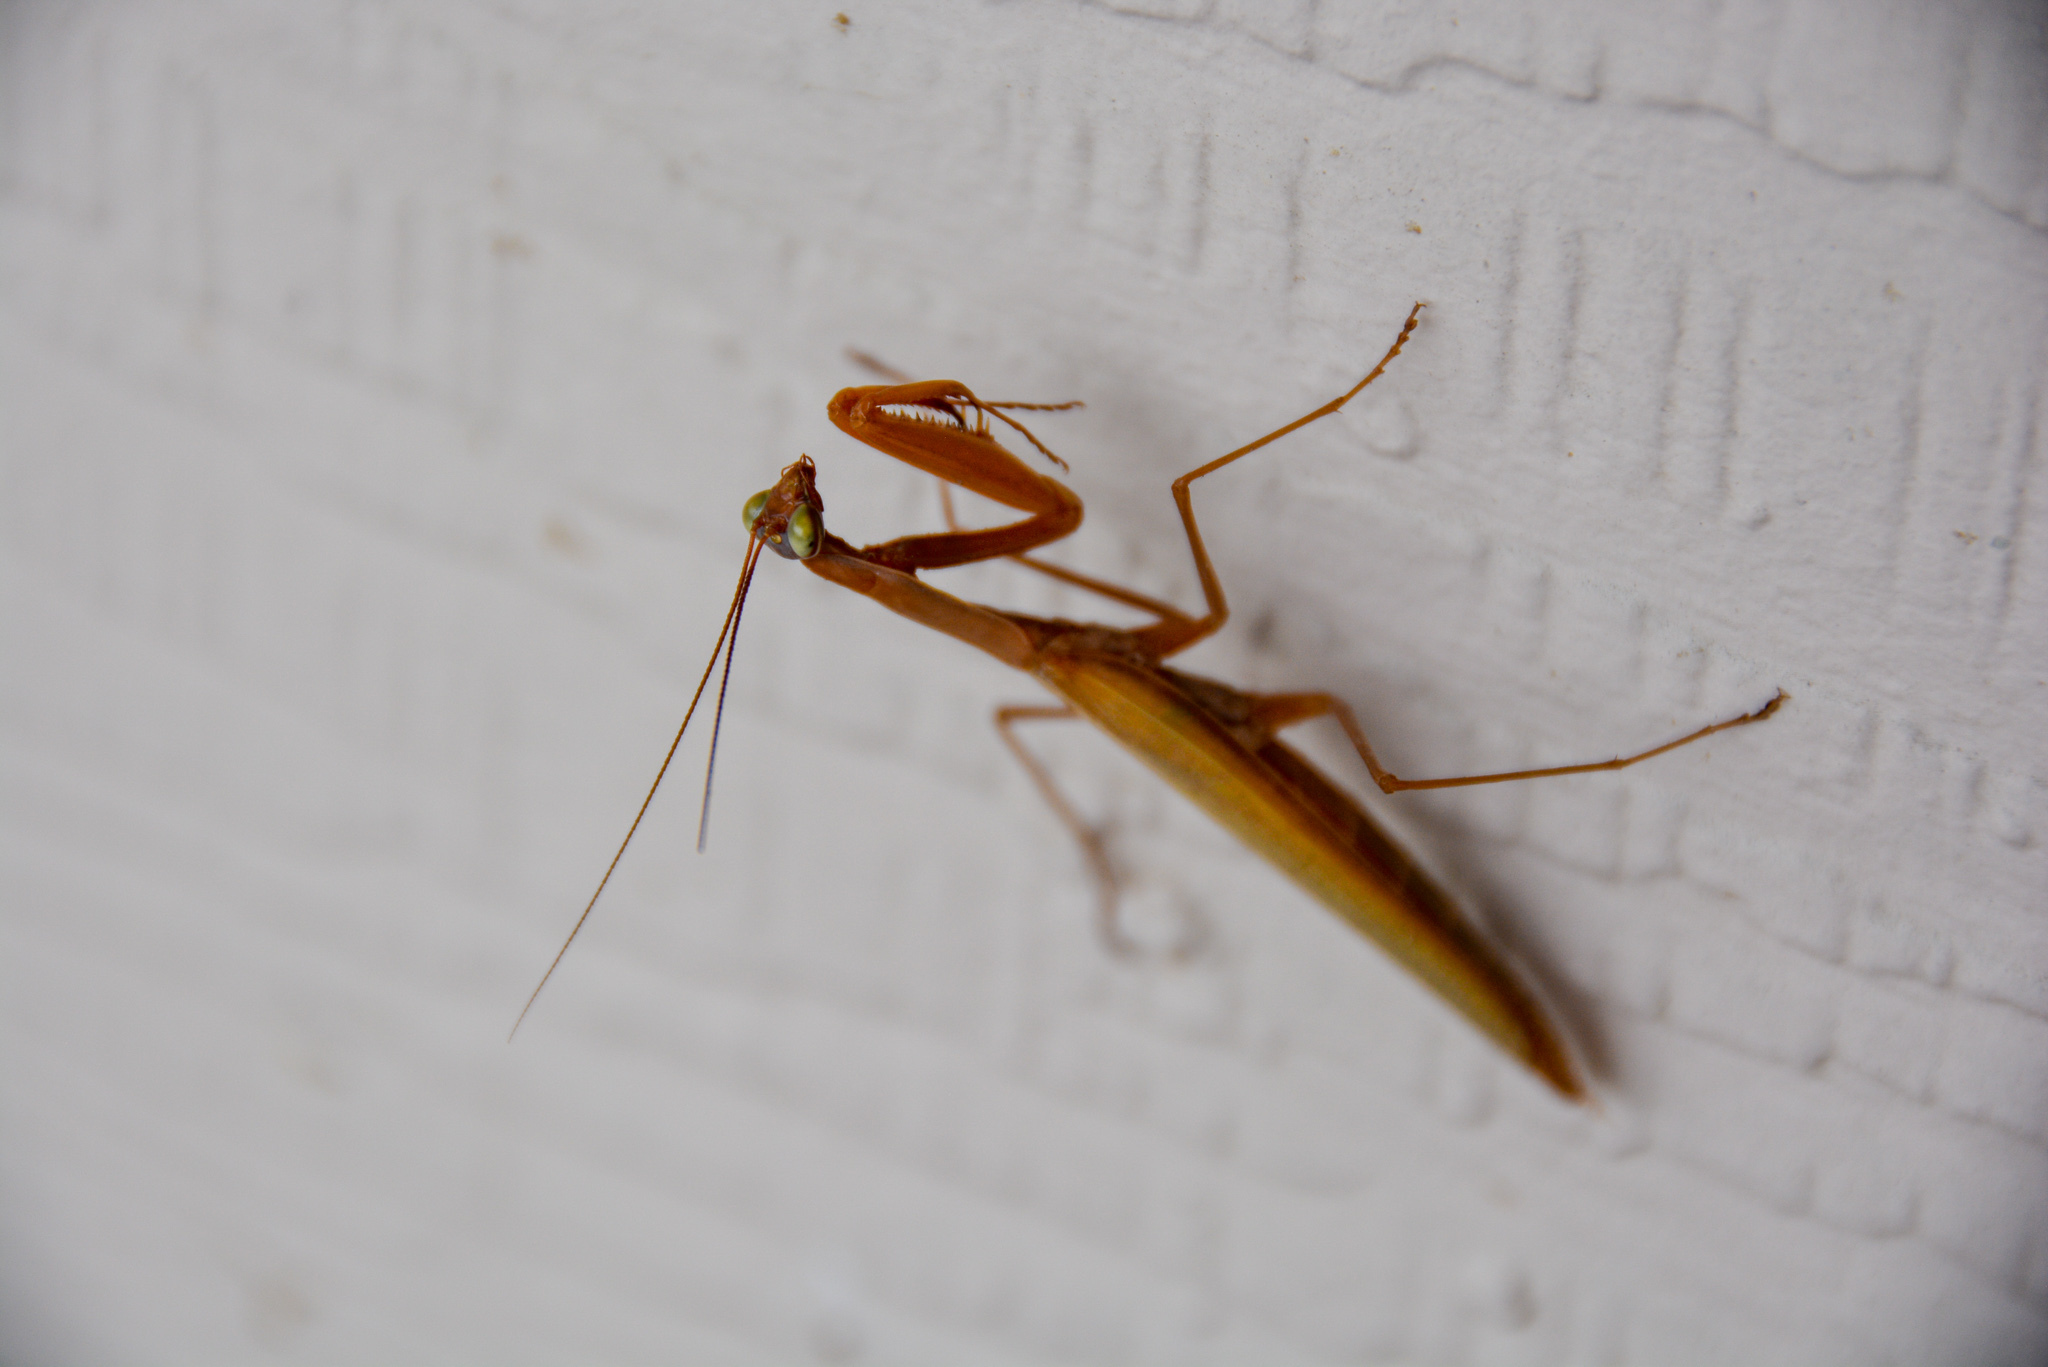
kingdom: Animalia
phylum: Arthropoda
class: Insecta
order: Mantodea
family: Mantidae
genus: Mantis
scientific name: Mantis religiosa
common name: Praying mantis
